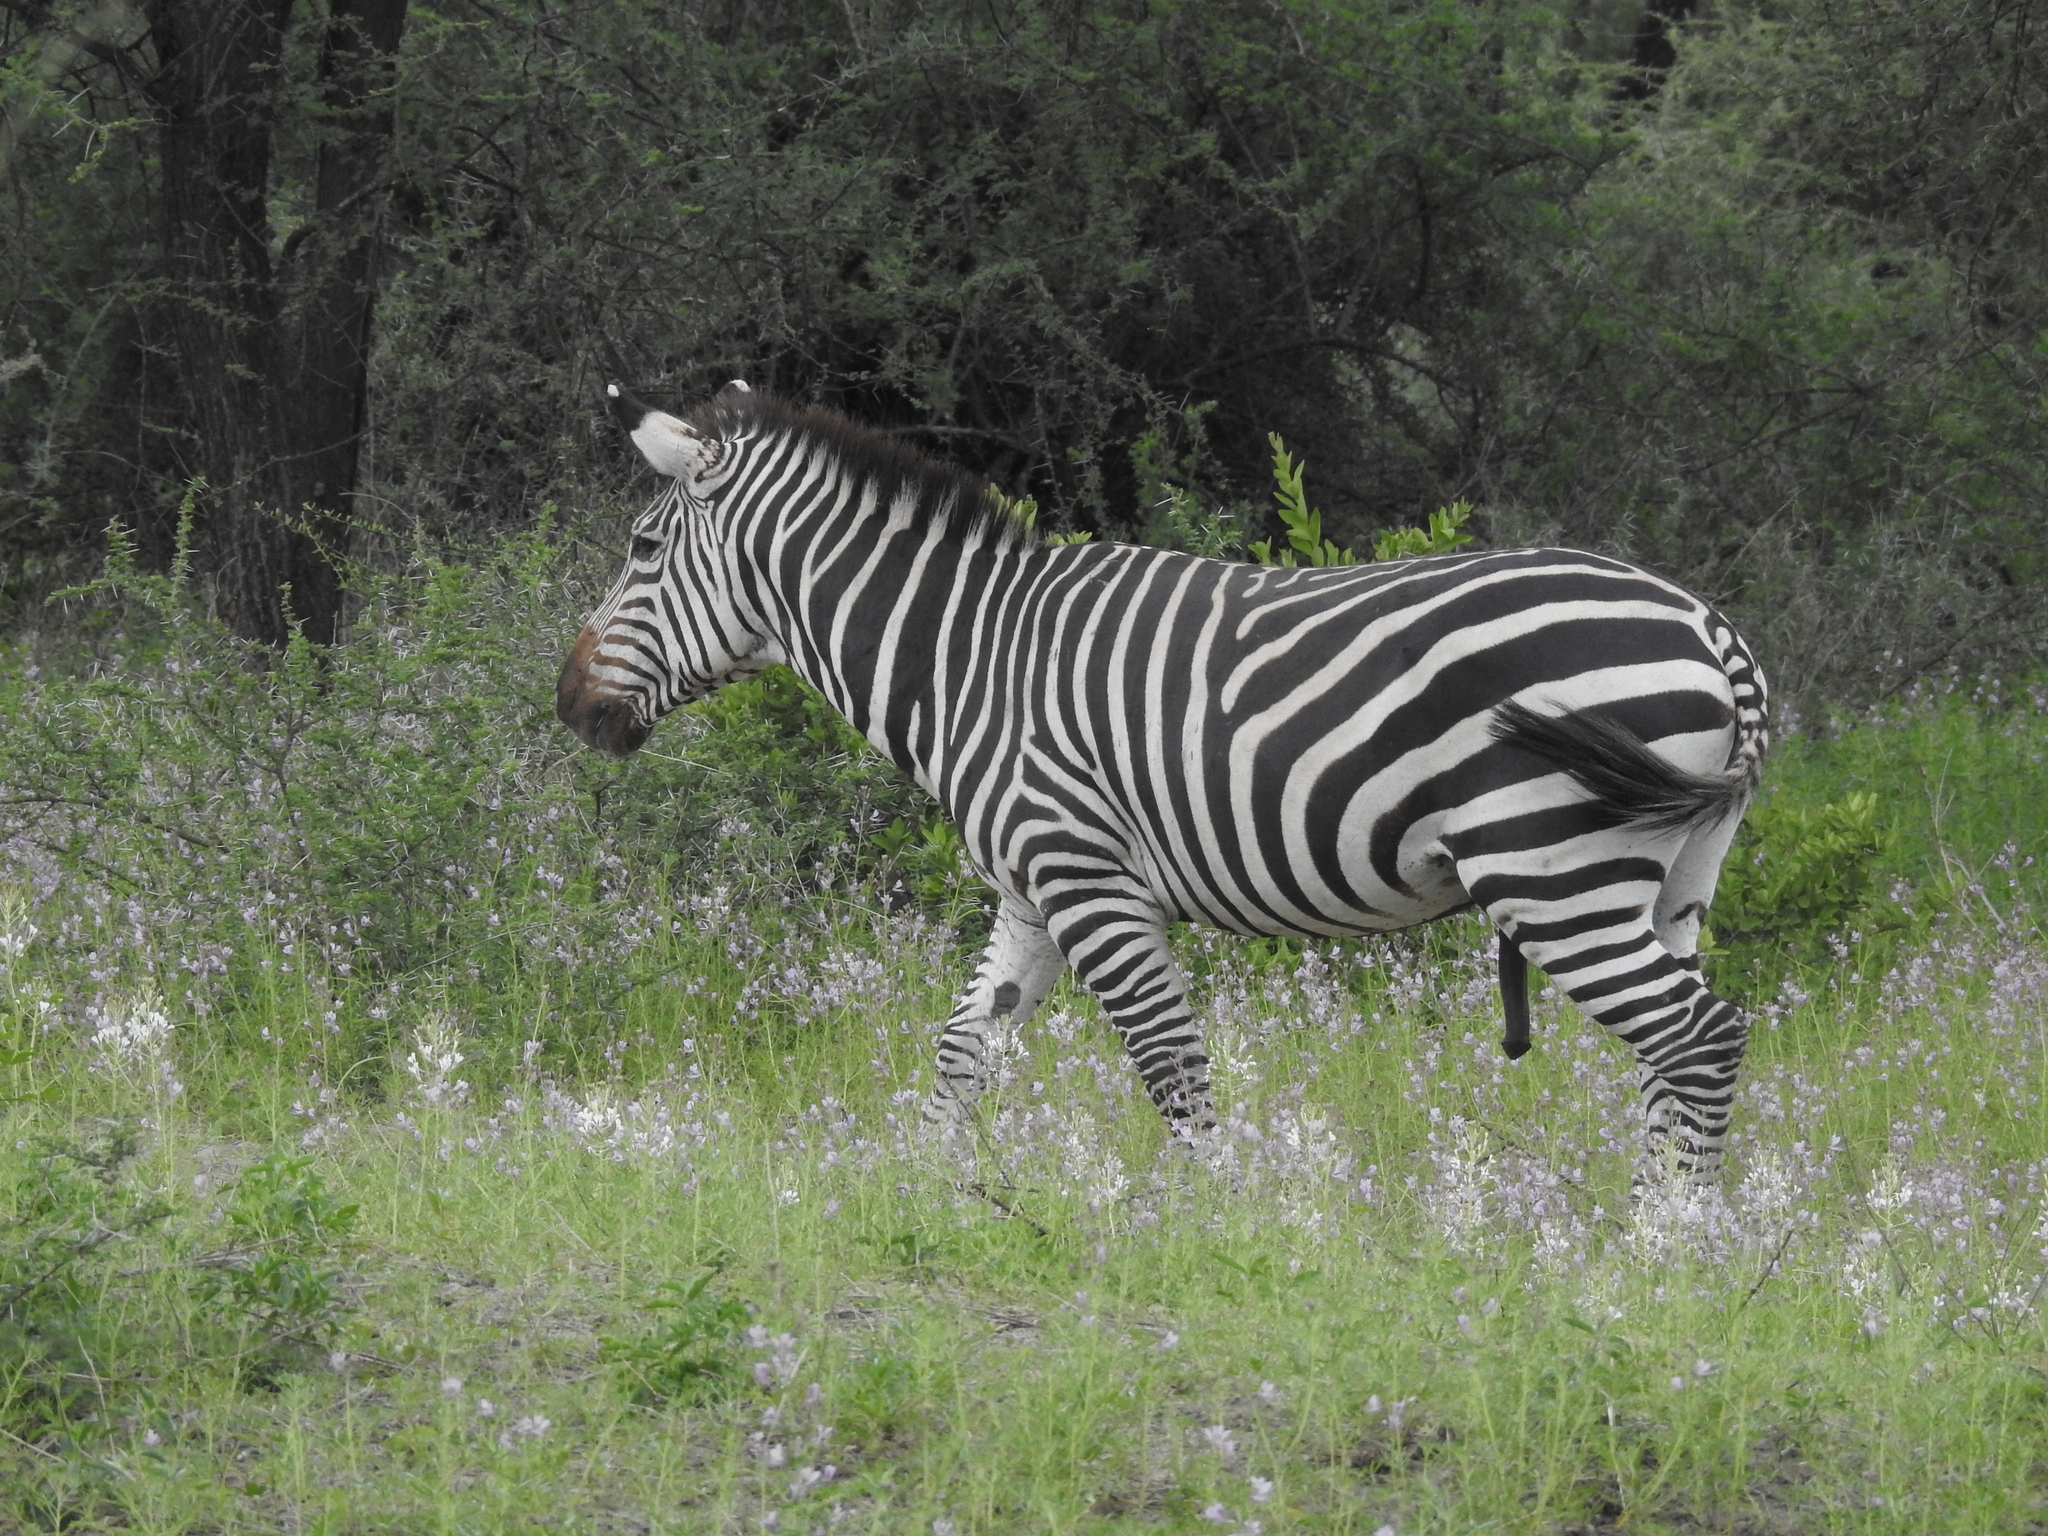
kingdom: Animalia
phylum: Chordata
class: Mammalia
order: Perissodactyla
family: Equidae
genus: Equus
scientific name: Equus quagga
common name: Plains zebra
